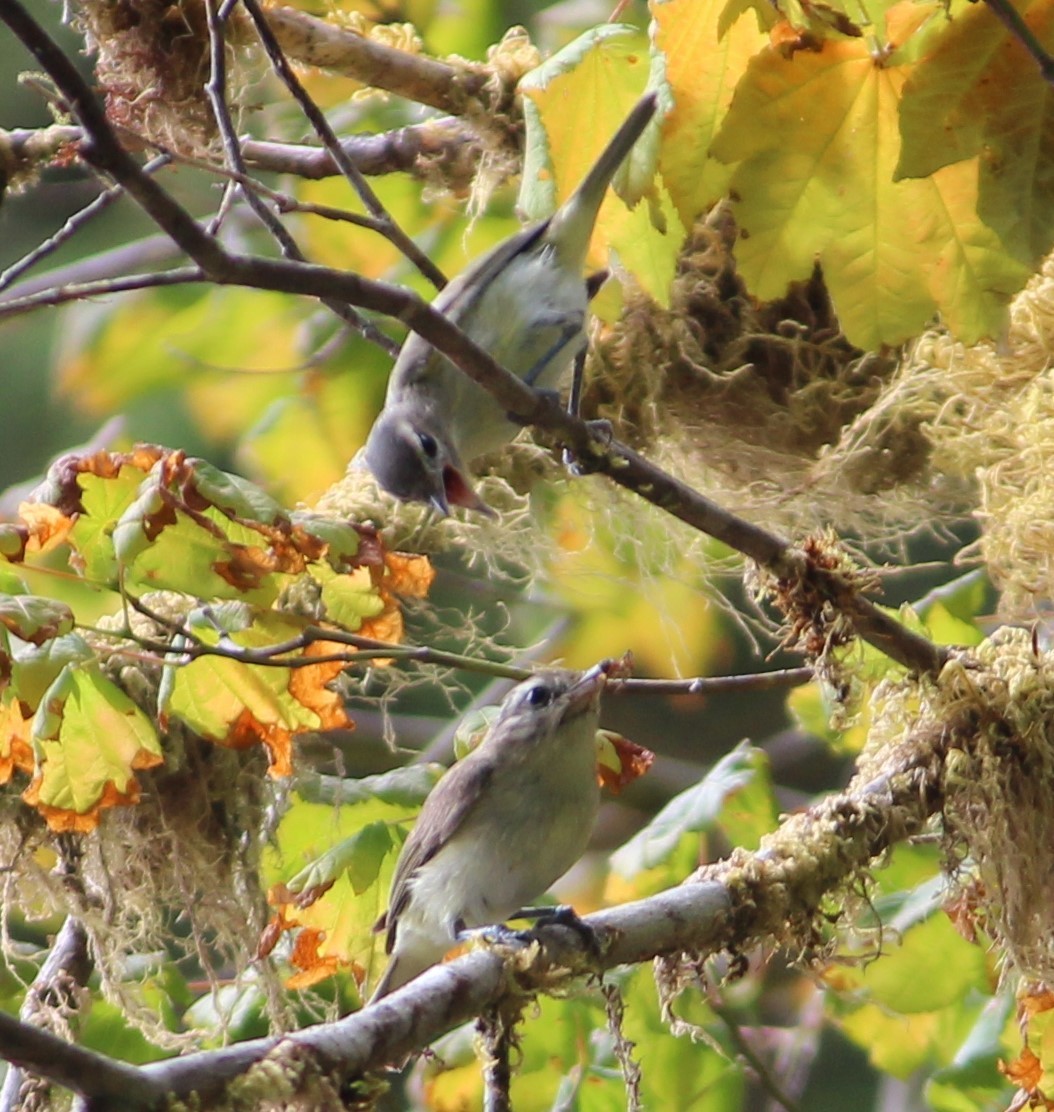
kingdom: Animalia
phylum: Chordata
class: Aves
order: Passeriformes
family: Vireonidae
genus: Vireo
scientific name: Vireo gilvus
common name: Warbling vireo
